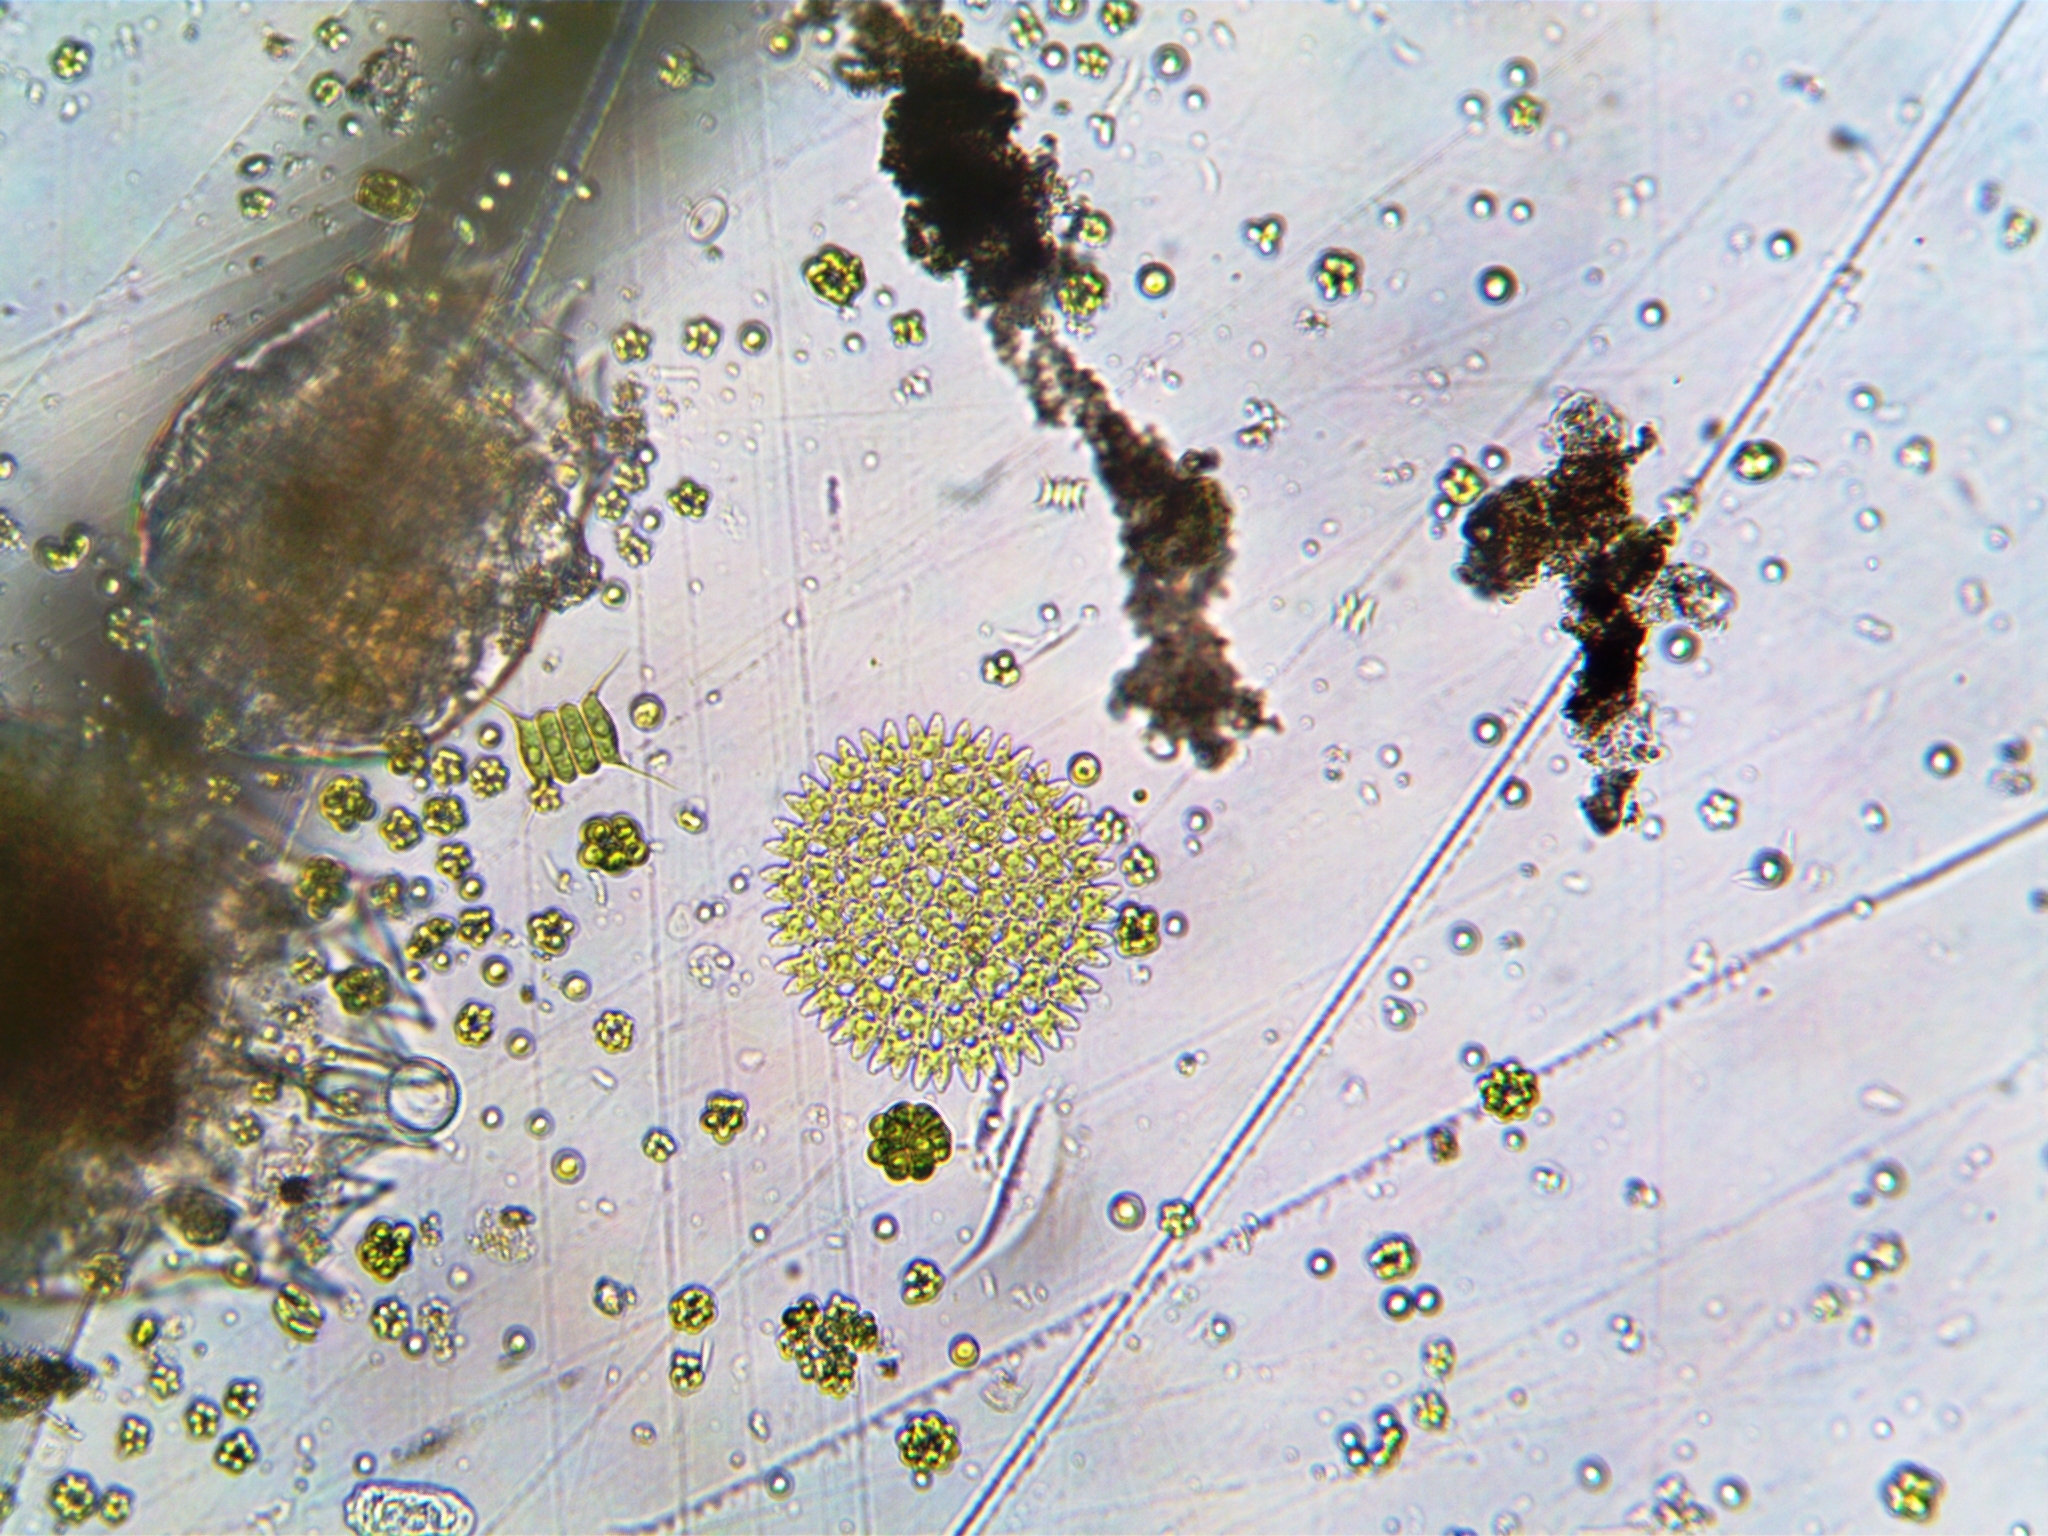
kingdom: Plantae
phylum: Chlorophyta
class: Chlorophyceae
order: Sphaeropleales
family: Hydrodictyaceae
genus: Pediastrum
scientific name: Pediastrum duplex
